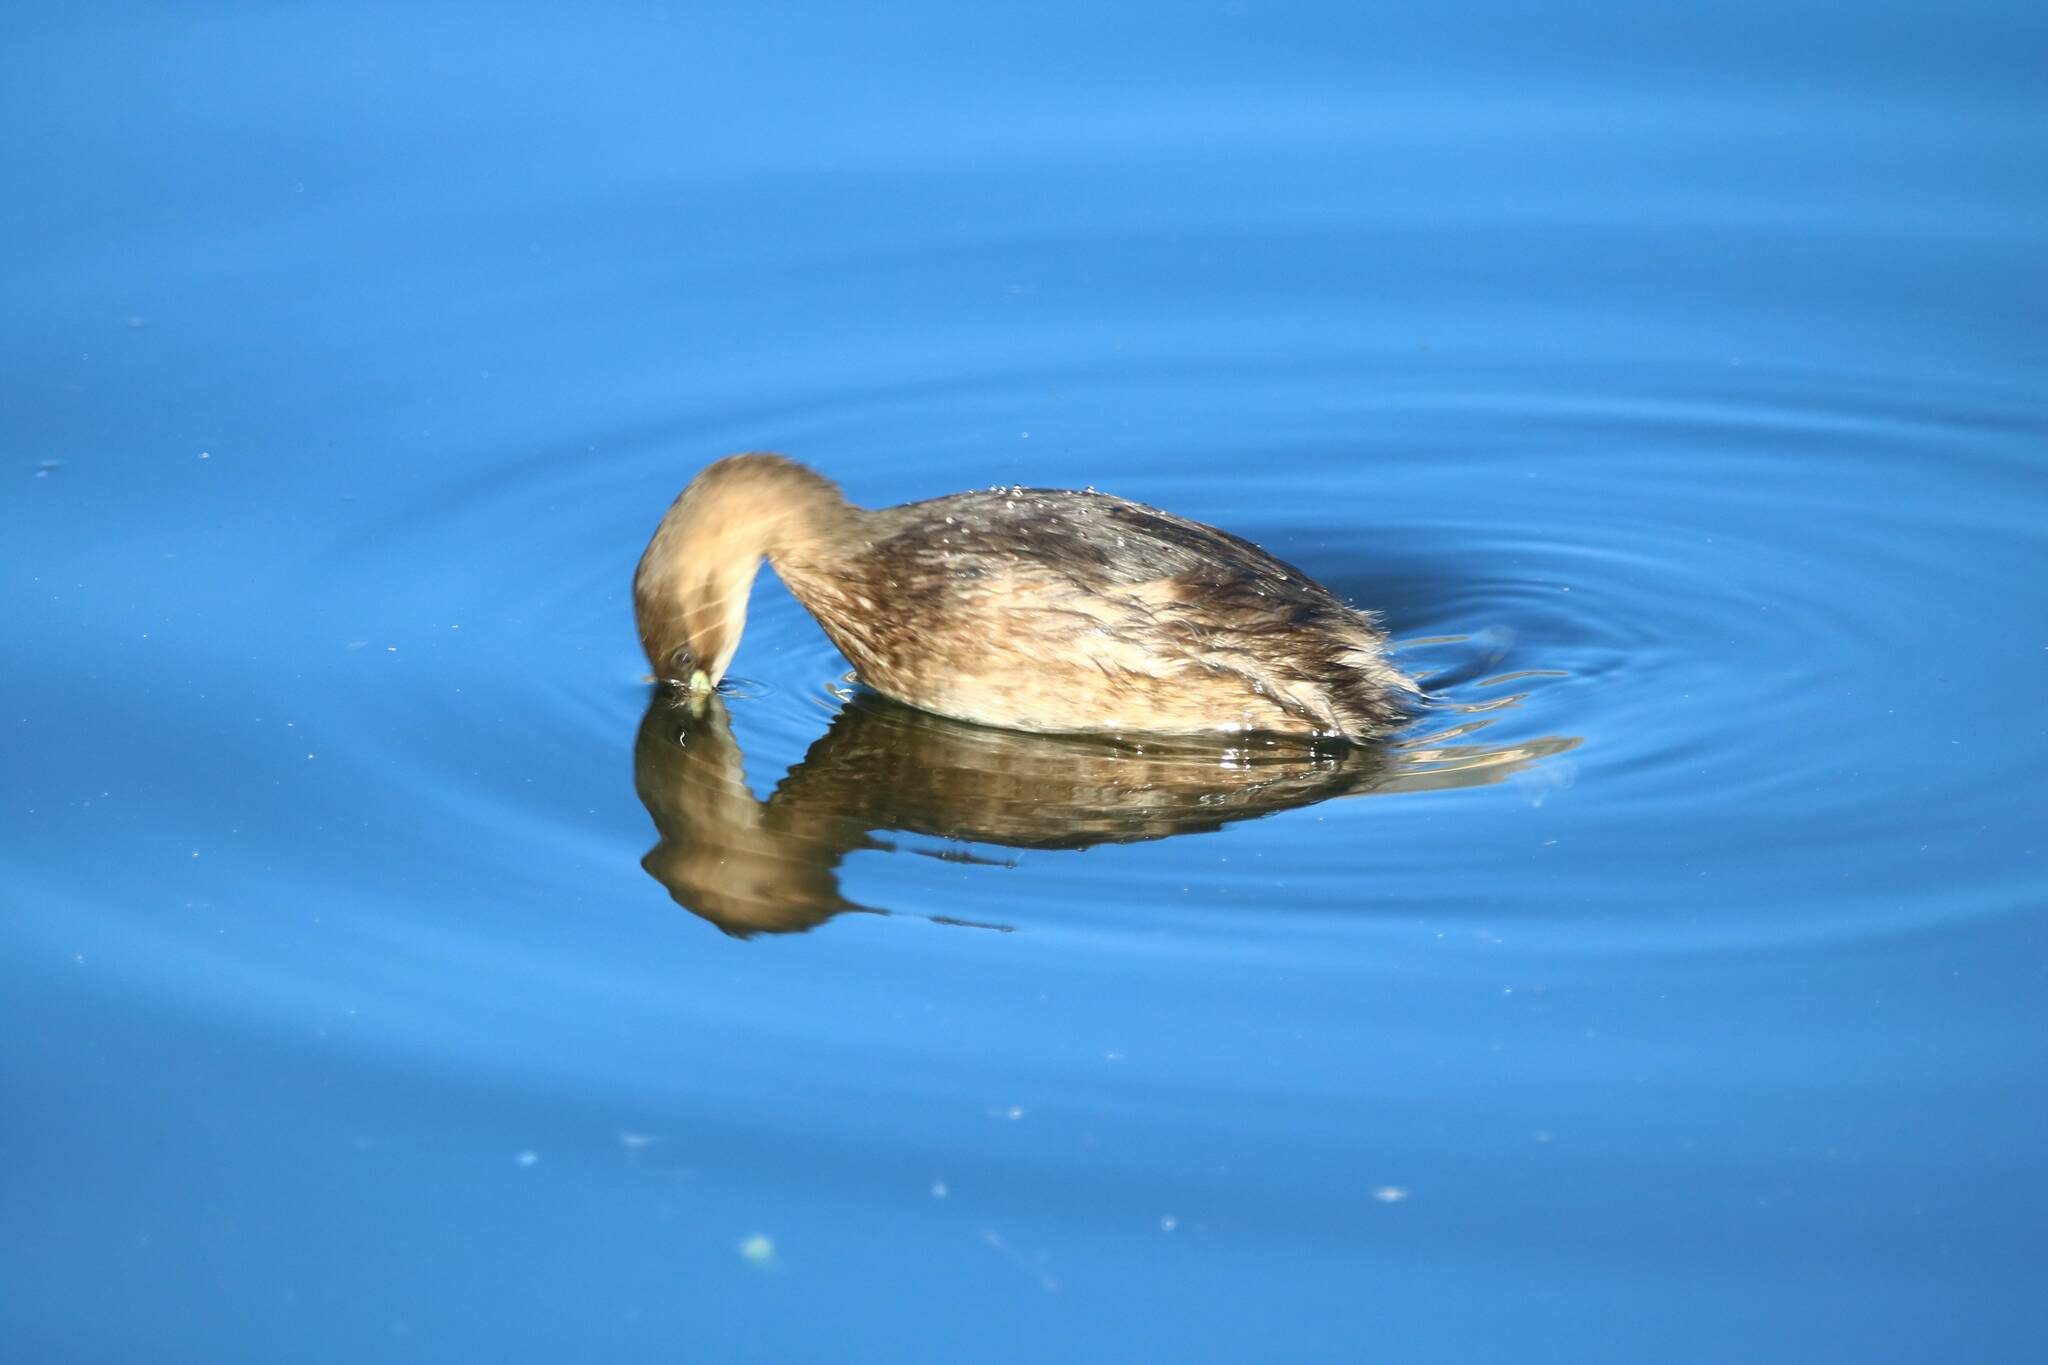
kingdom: Animalia
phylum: Chordata
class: Aves
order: Podicipediformes
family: Podicipedidae
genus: Tachybaptus
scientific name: Tachybaptus ruficollis
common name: Little grebe
